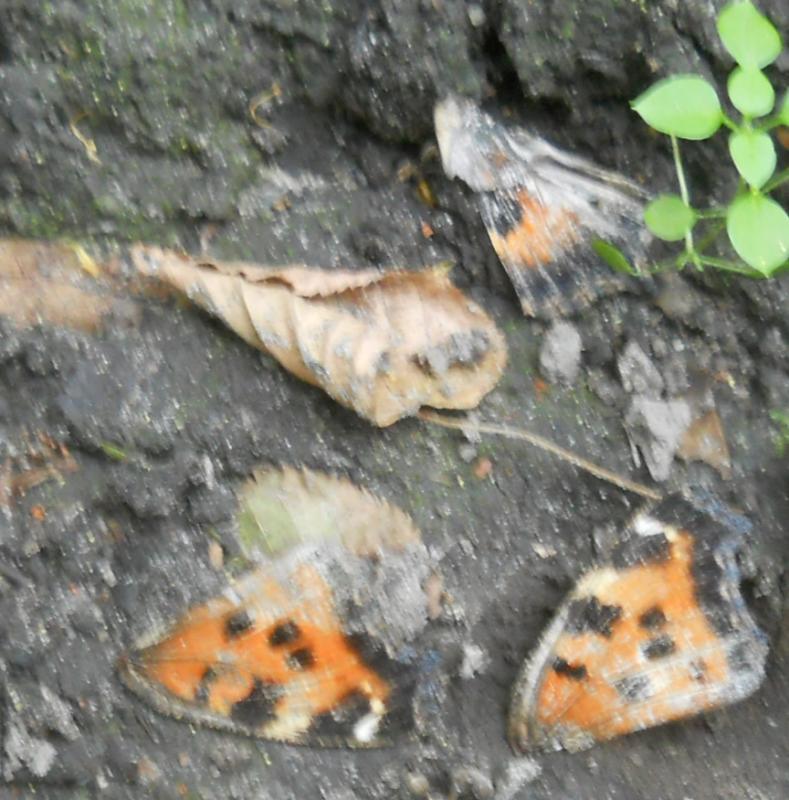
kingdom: Animalia
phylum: Arthropoda
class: Insecta
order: Lepidoptera
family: Nymphalidae
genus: Nymphalis
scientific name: Nymphalis xanthomelas
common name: Scarce tortoiseshell
